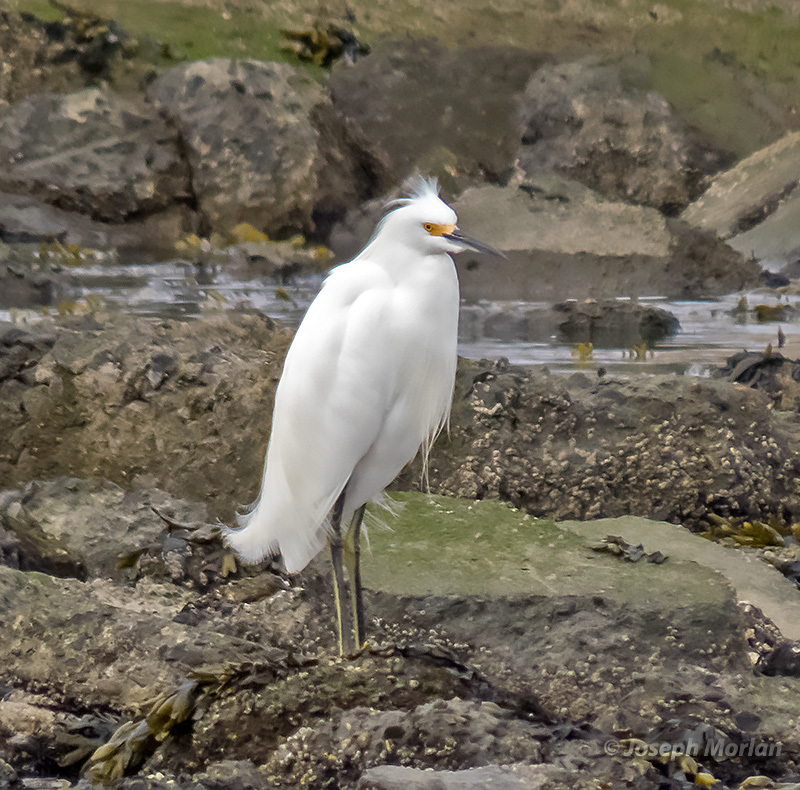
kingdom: Animalia
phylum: Chordata
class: Aves
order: Pelecaniformes
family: Ardeidae
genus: Egretta
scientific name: Egretta thula
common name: Snowy egret
